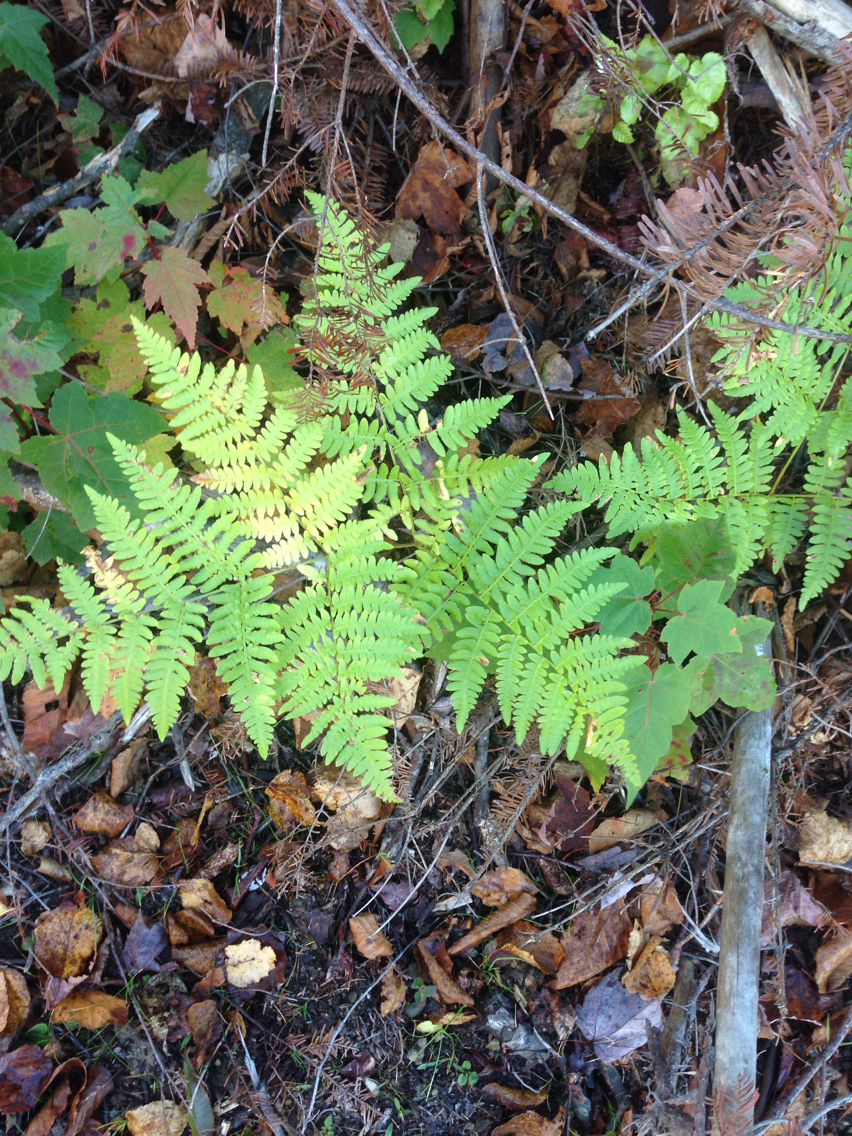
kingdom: Plantae
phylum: Tracheophyta
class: Polypodiopsida
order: Polypodiales
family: Dennstaedtiaceae
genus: Pteridium
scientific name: Pteridium aquilinum
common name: Bracken
